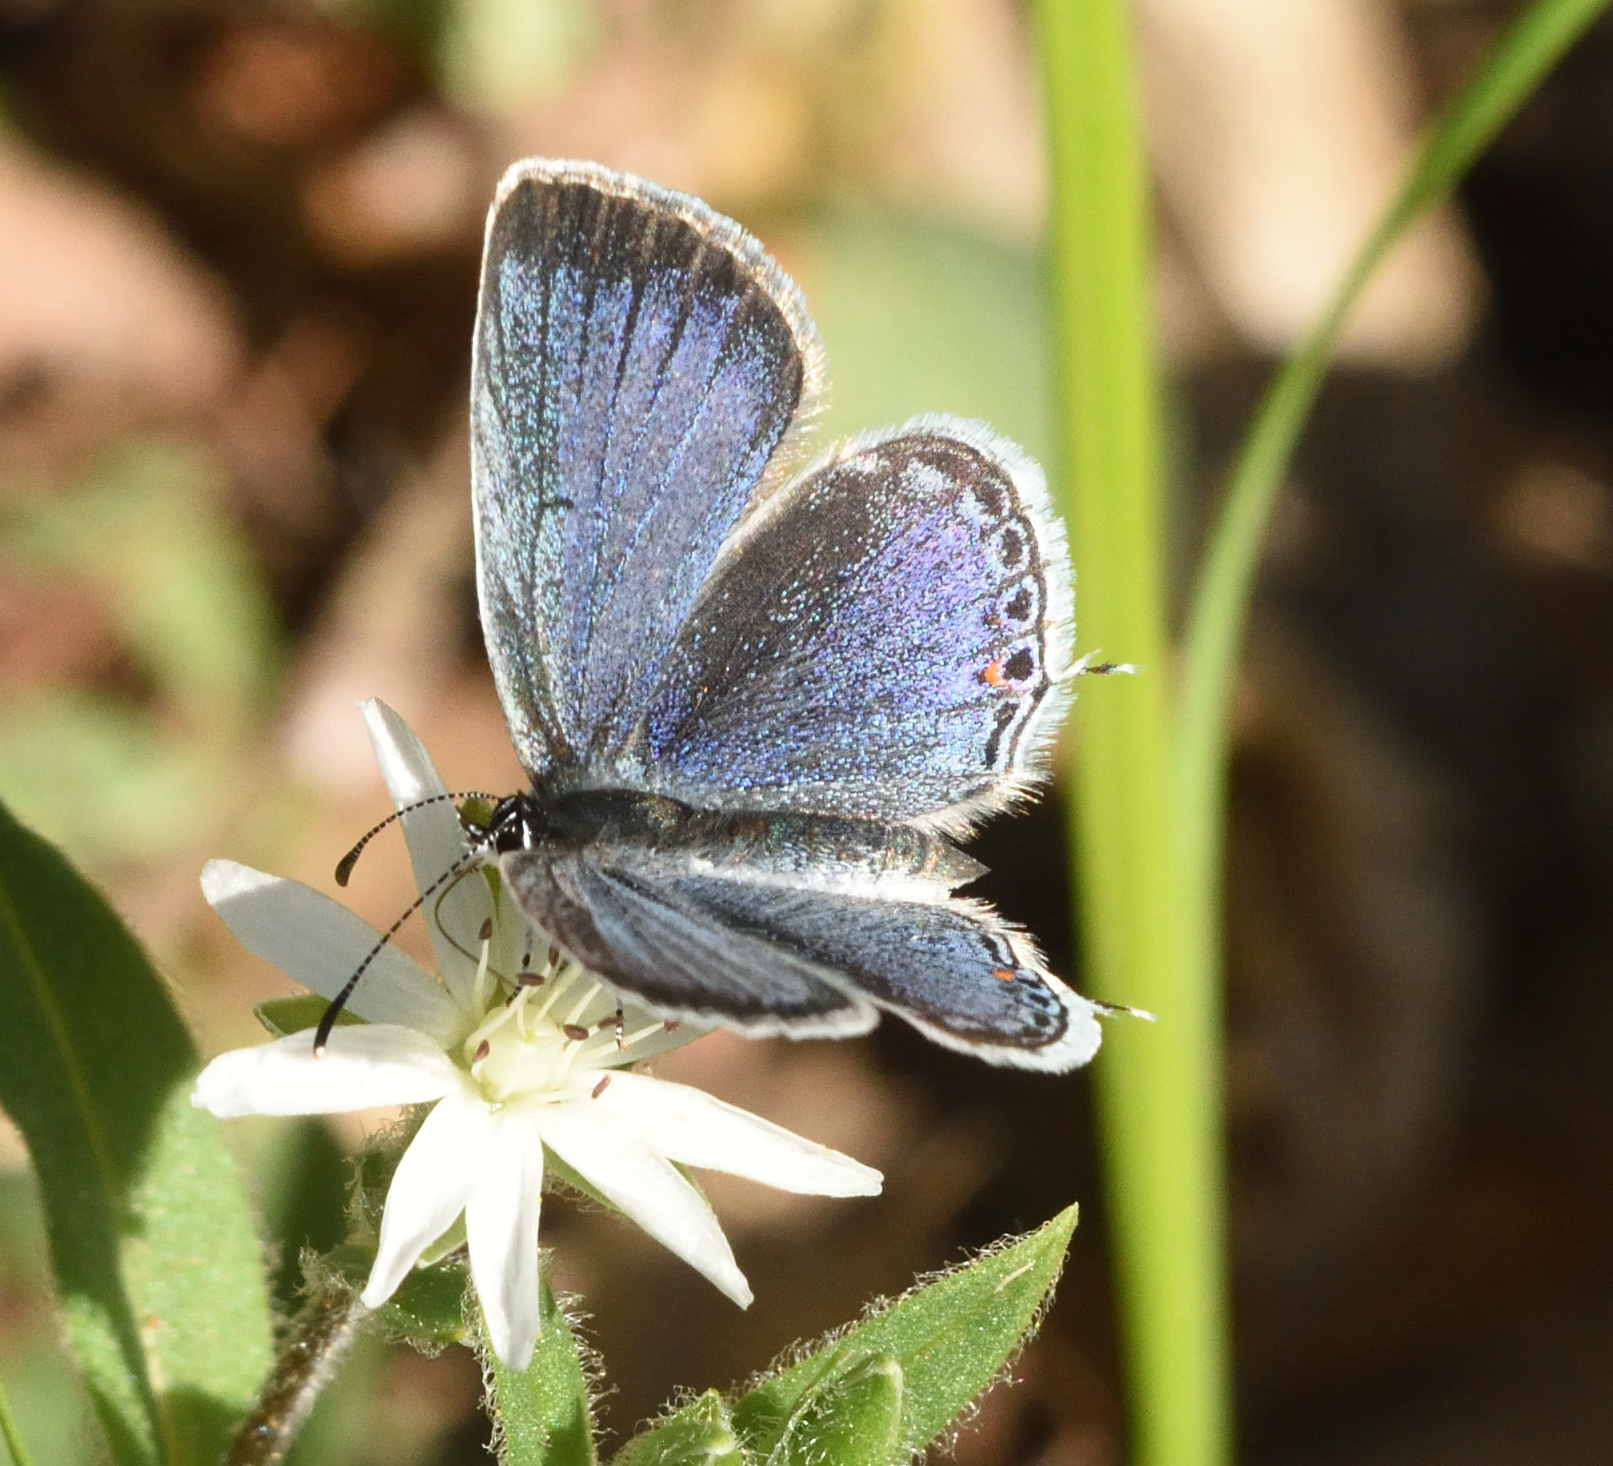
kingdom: Animalia
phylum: Arthropoda
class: Insecta
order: Lepidoptera
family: Lycaenidae
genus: Elkalyce
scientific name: Elkalyce comyntas
